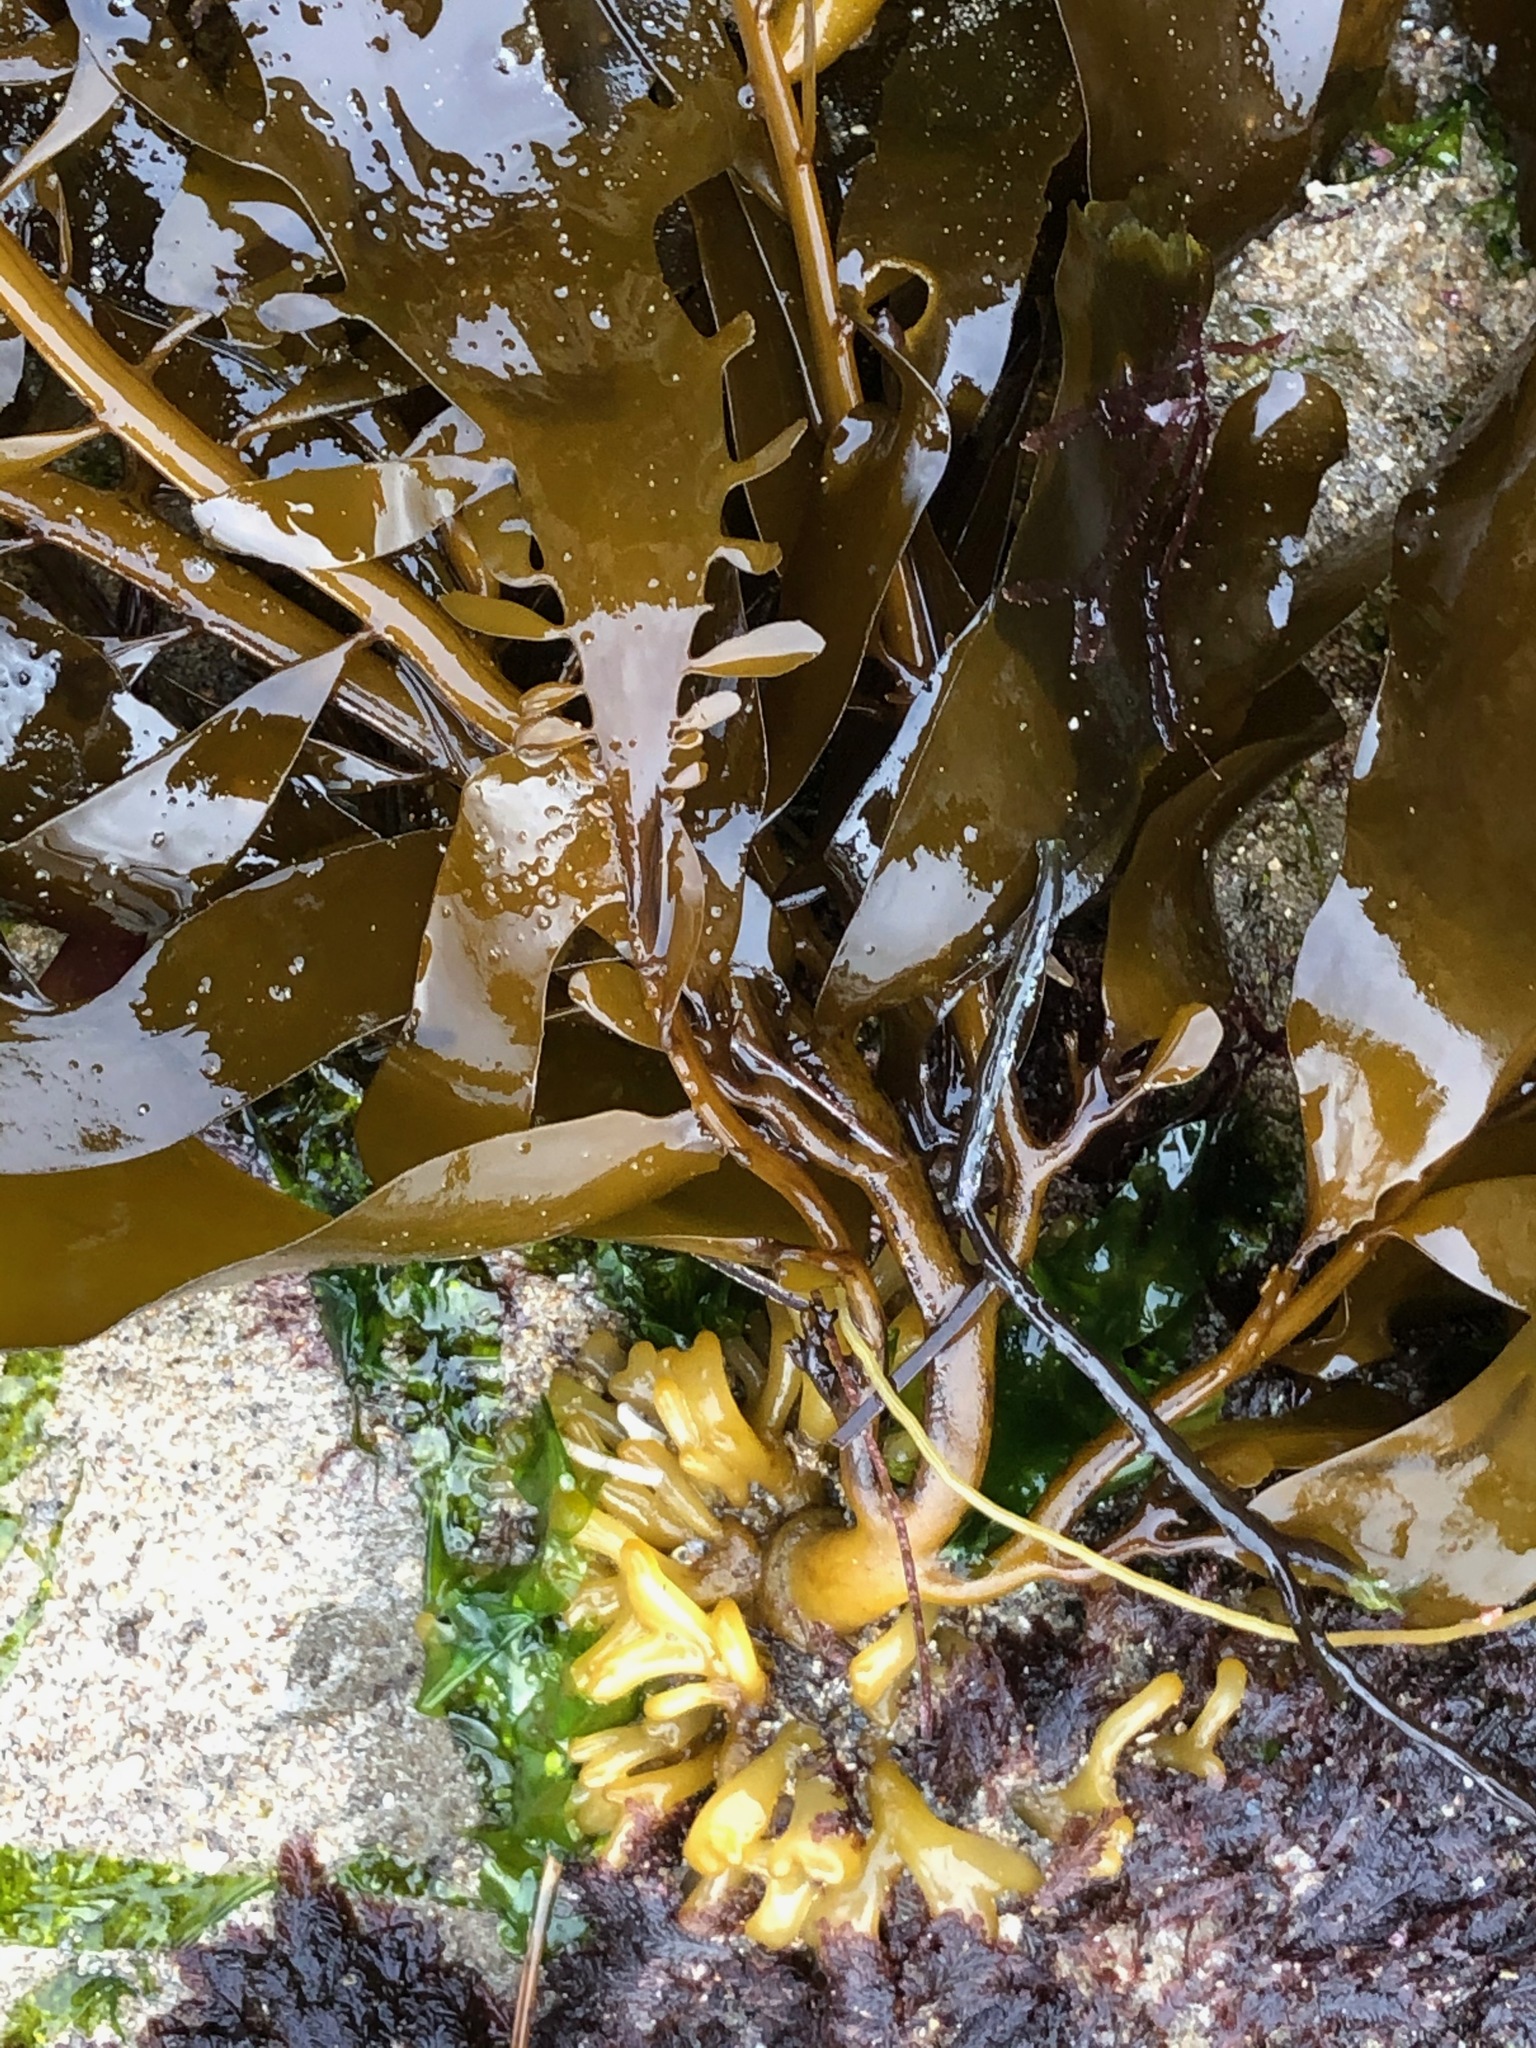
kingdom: Chromista
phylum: Ochrophyta
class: Phaeophyceae
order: Laminariales
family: Lessoniaceae
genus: Egregia
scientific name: Egregia menziesii
